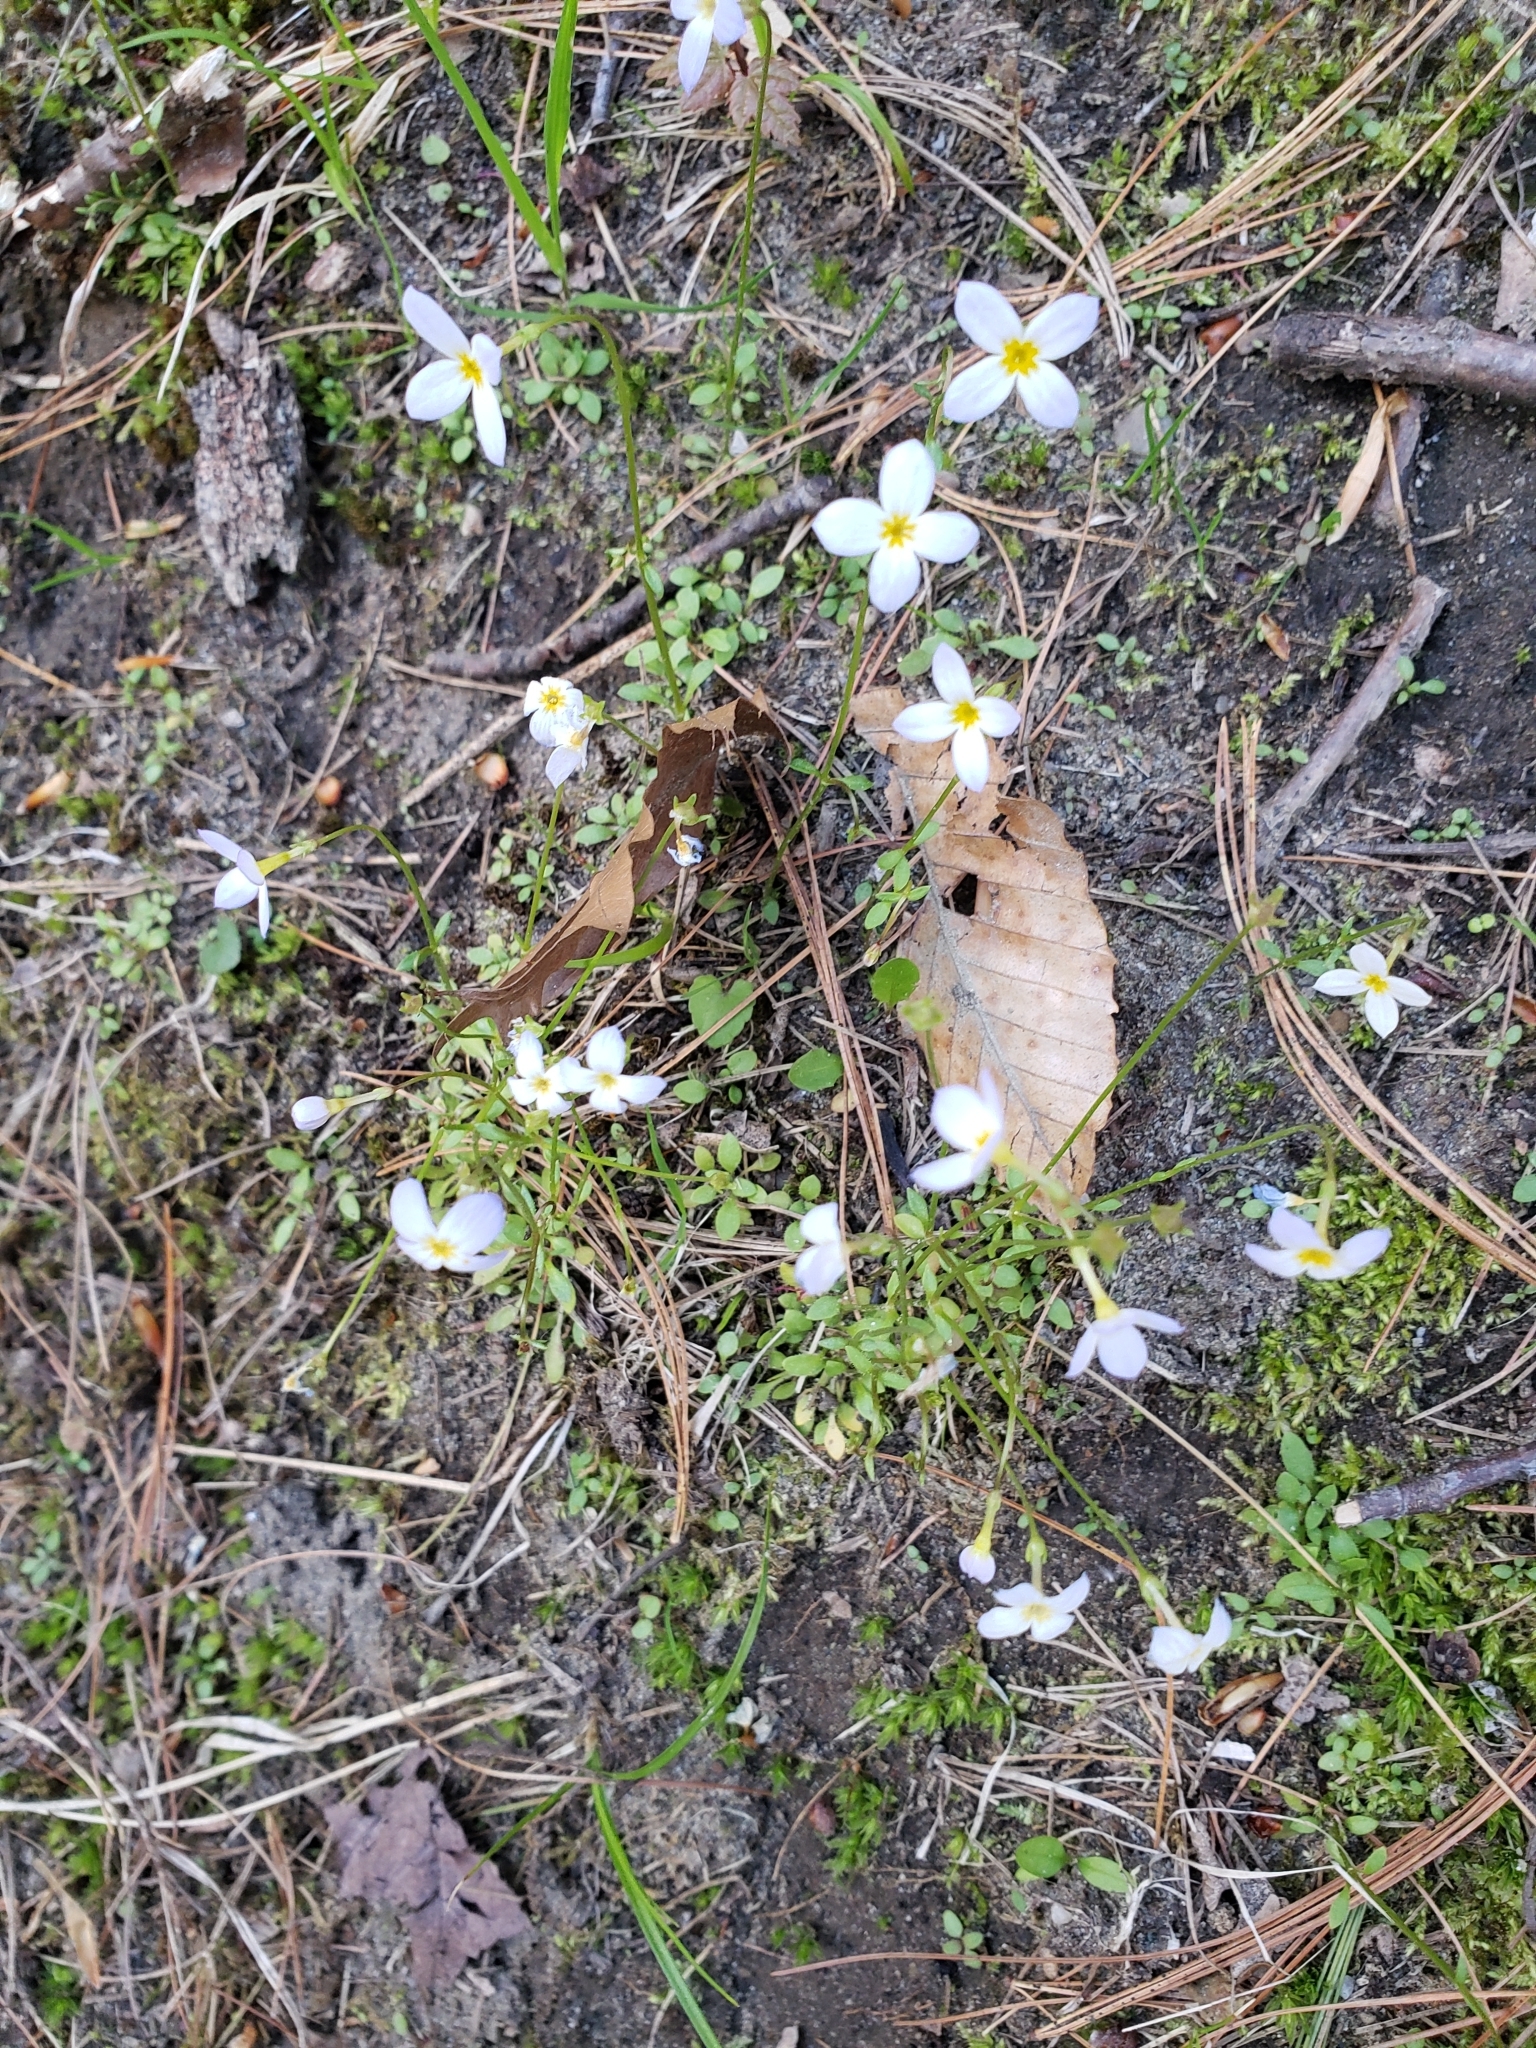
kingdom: Plantae
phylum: Tracheophyta
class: Magnoliopsida
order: Gentianales
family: Rubiaceae
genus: Houstonia
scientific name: Houstonia caerulea
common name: Bluets
